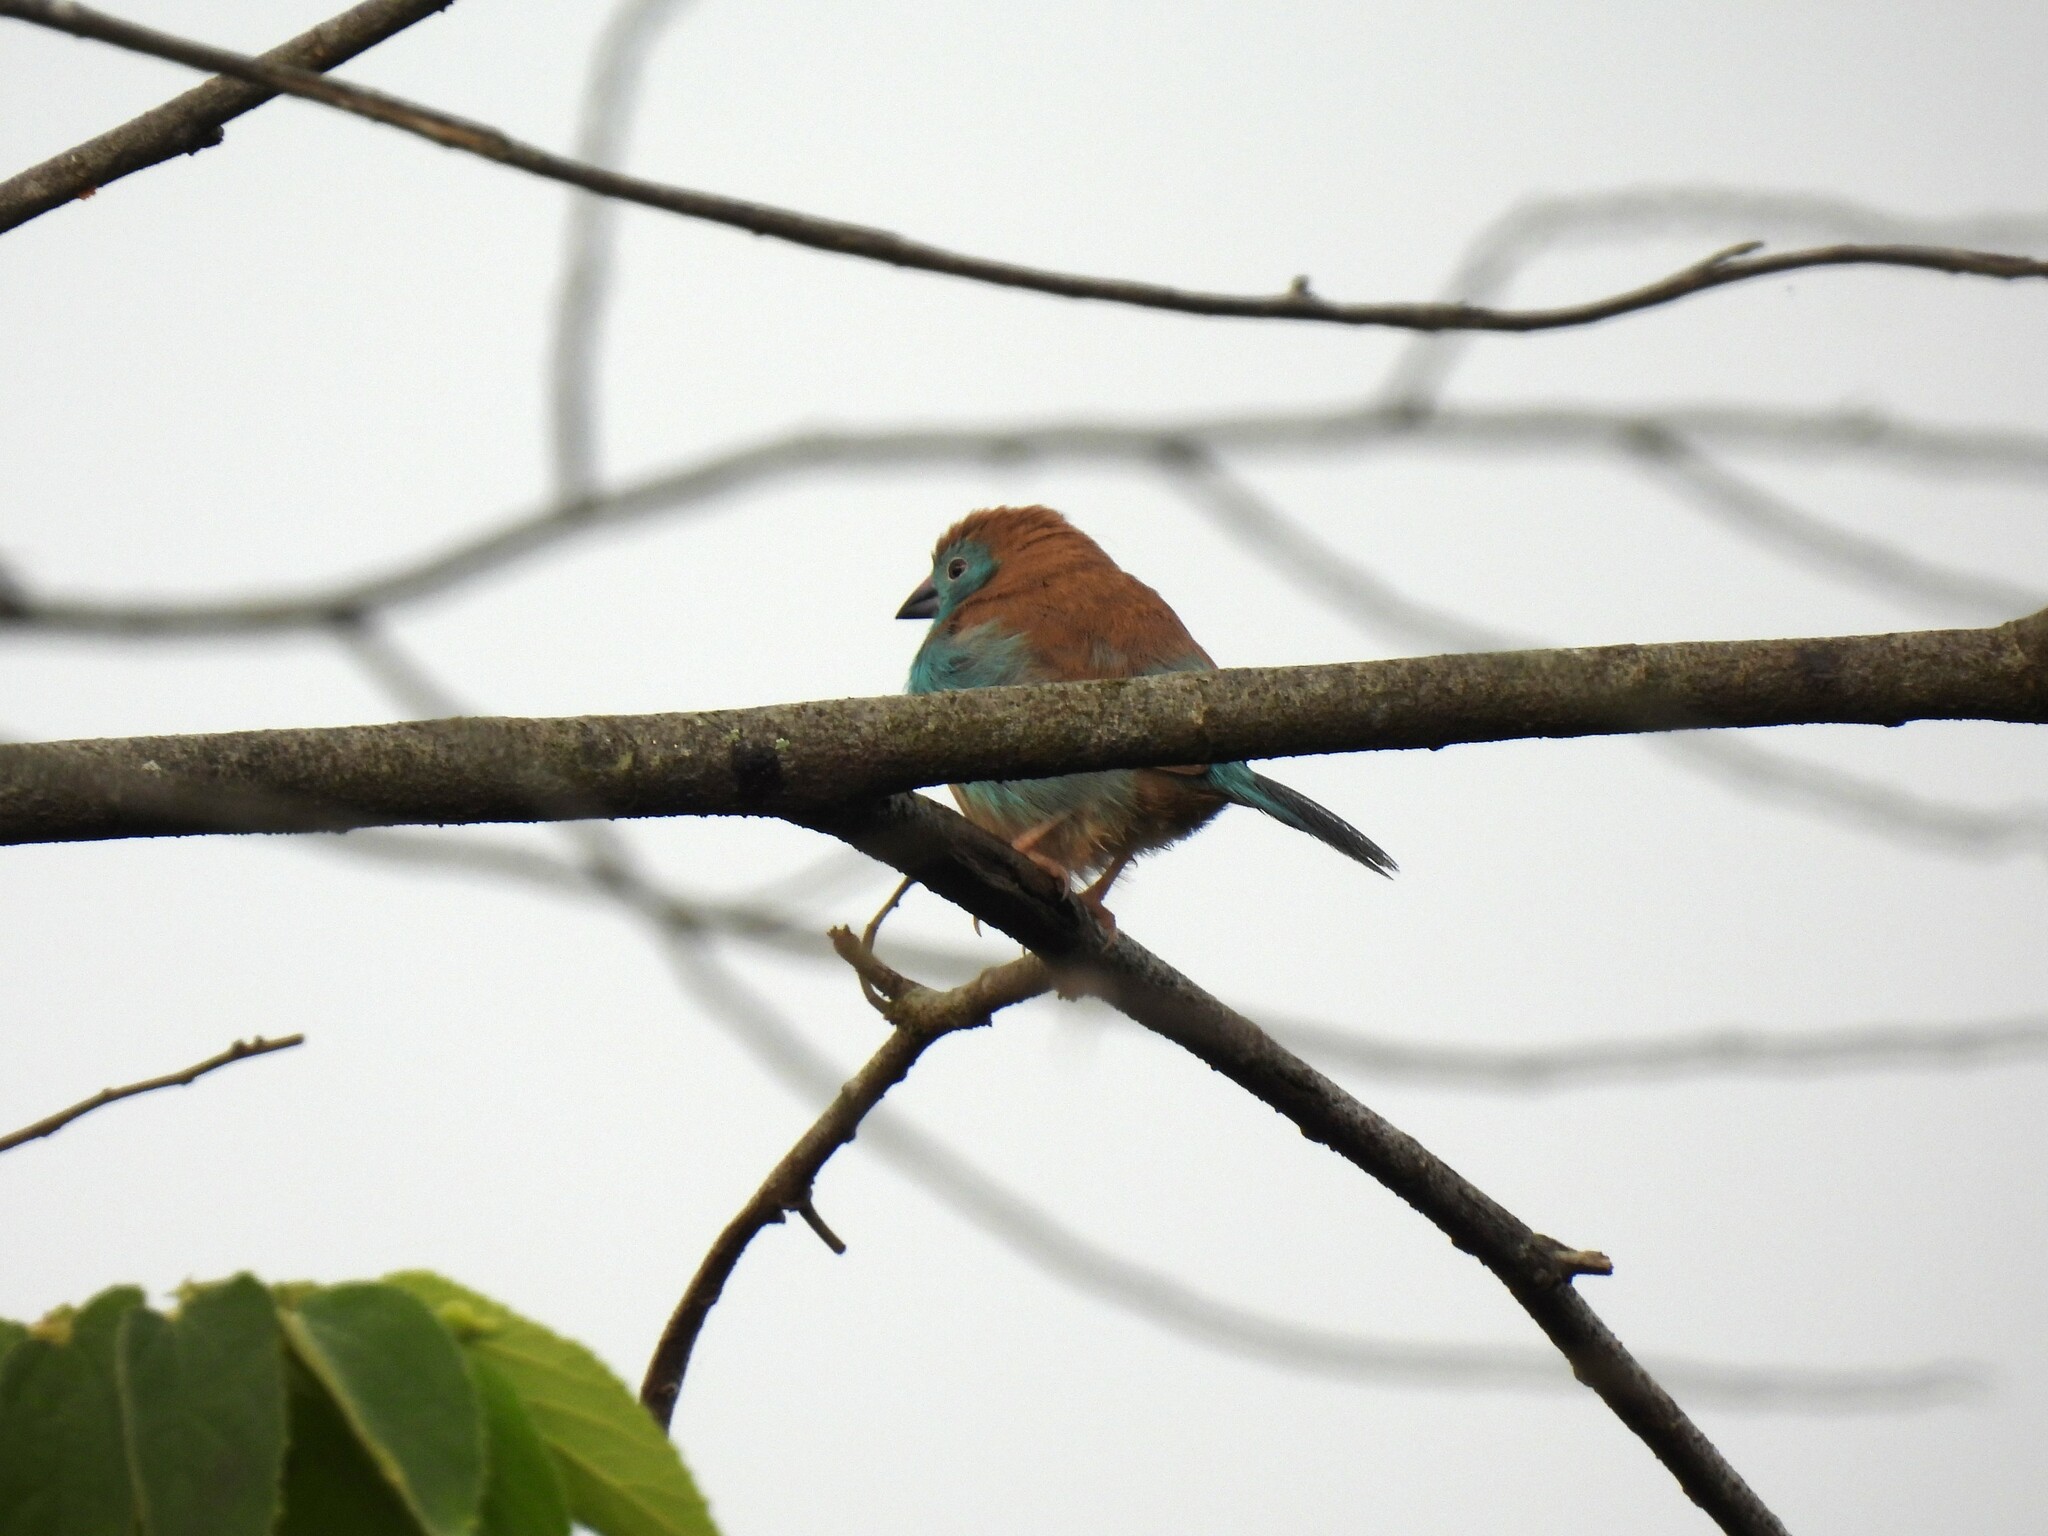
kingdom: Animalia
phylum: Chordata
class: Aves
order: Passeriformes
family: Estrildidae
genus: Uraeginthus
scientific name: Uraeginthus angolensis
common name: Blue waxbill
